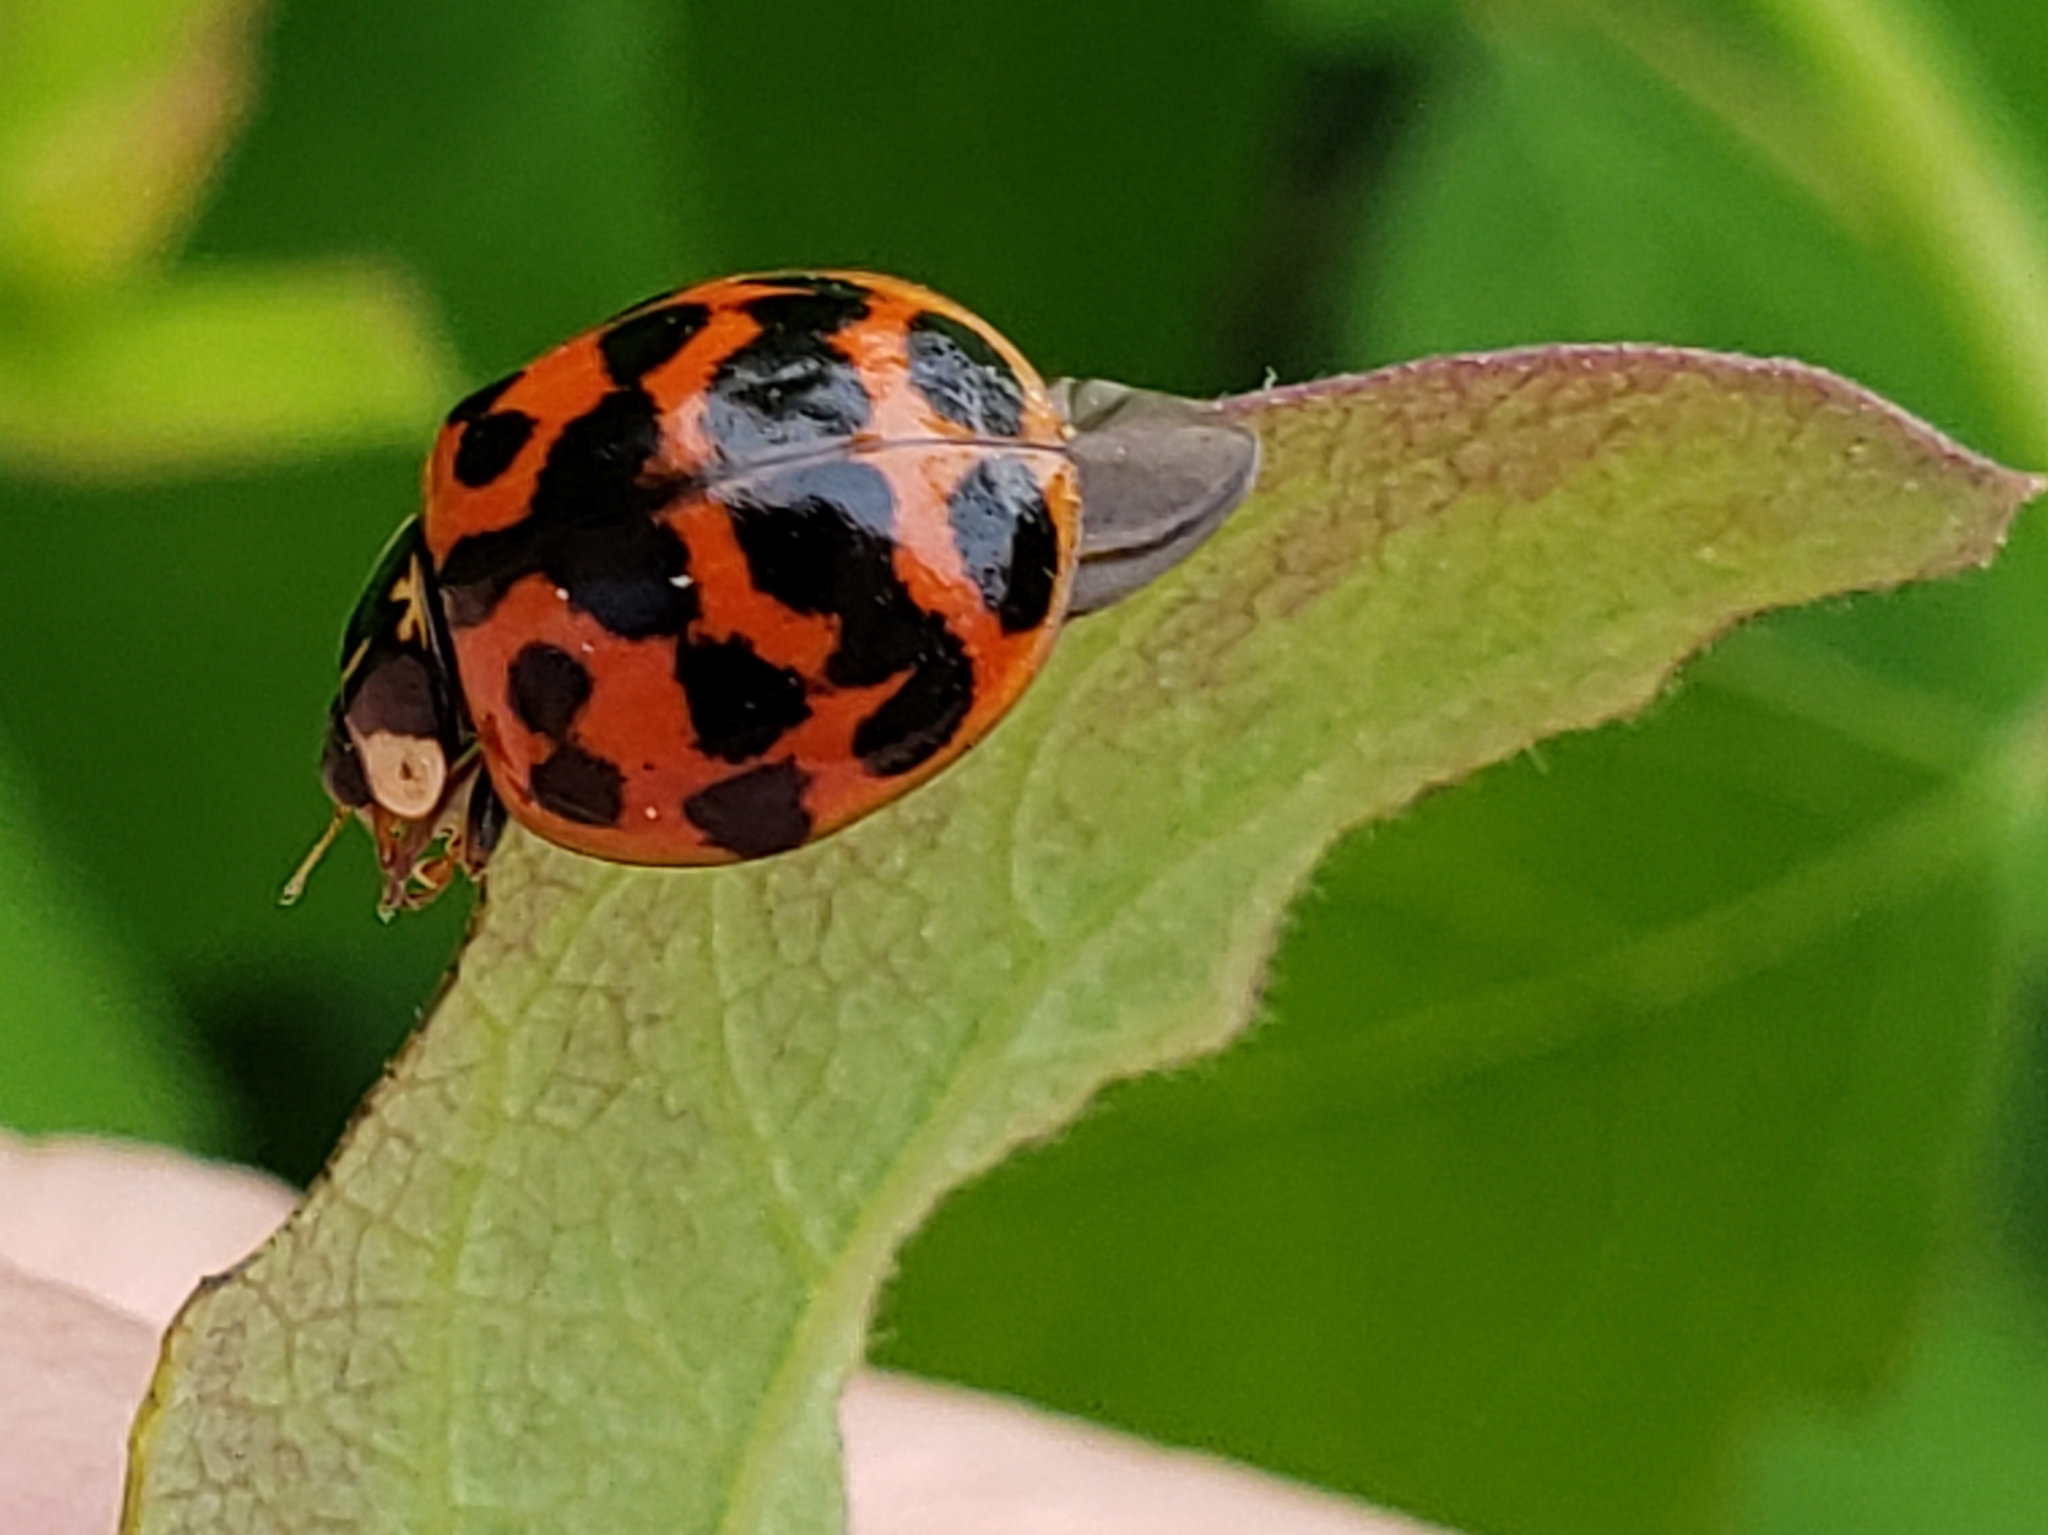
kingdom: Animalia
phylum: Arthropoda
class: Insecta
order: Coleoptera
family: Coccinellidae
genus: Harmonia
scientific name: Harmonia axyridis
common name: Harlequin ladybird
